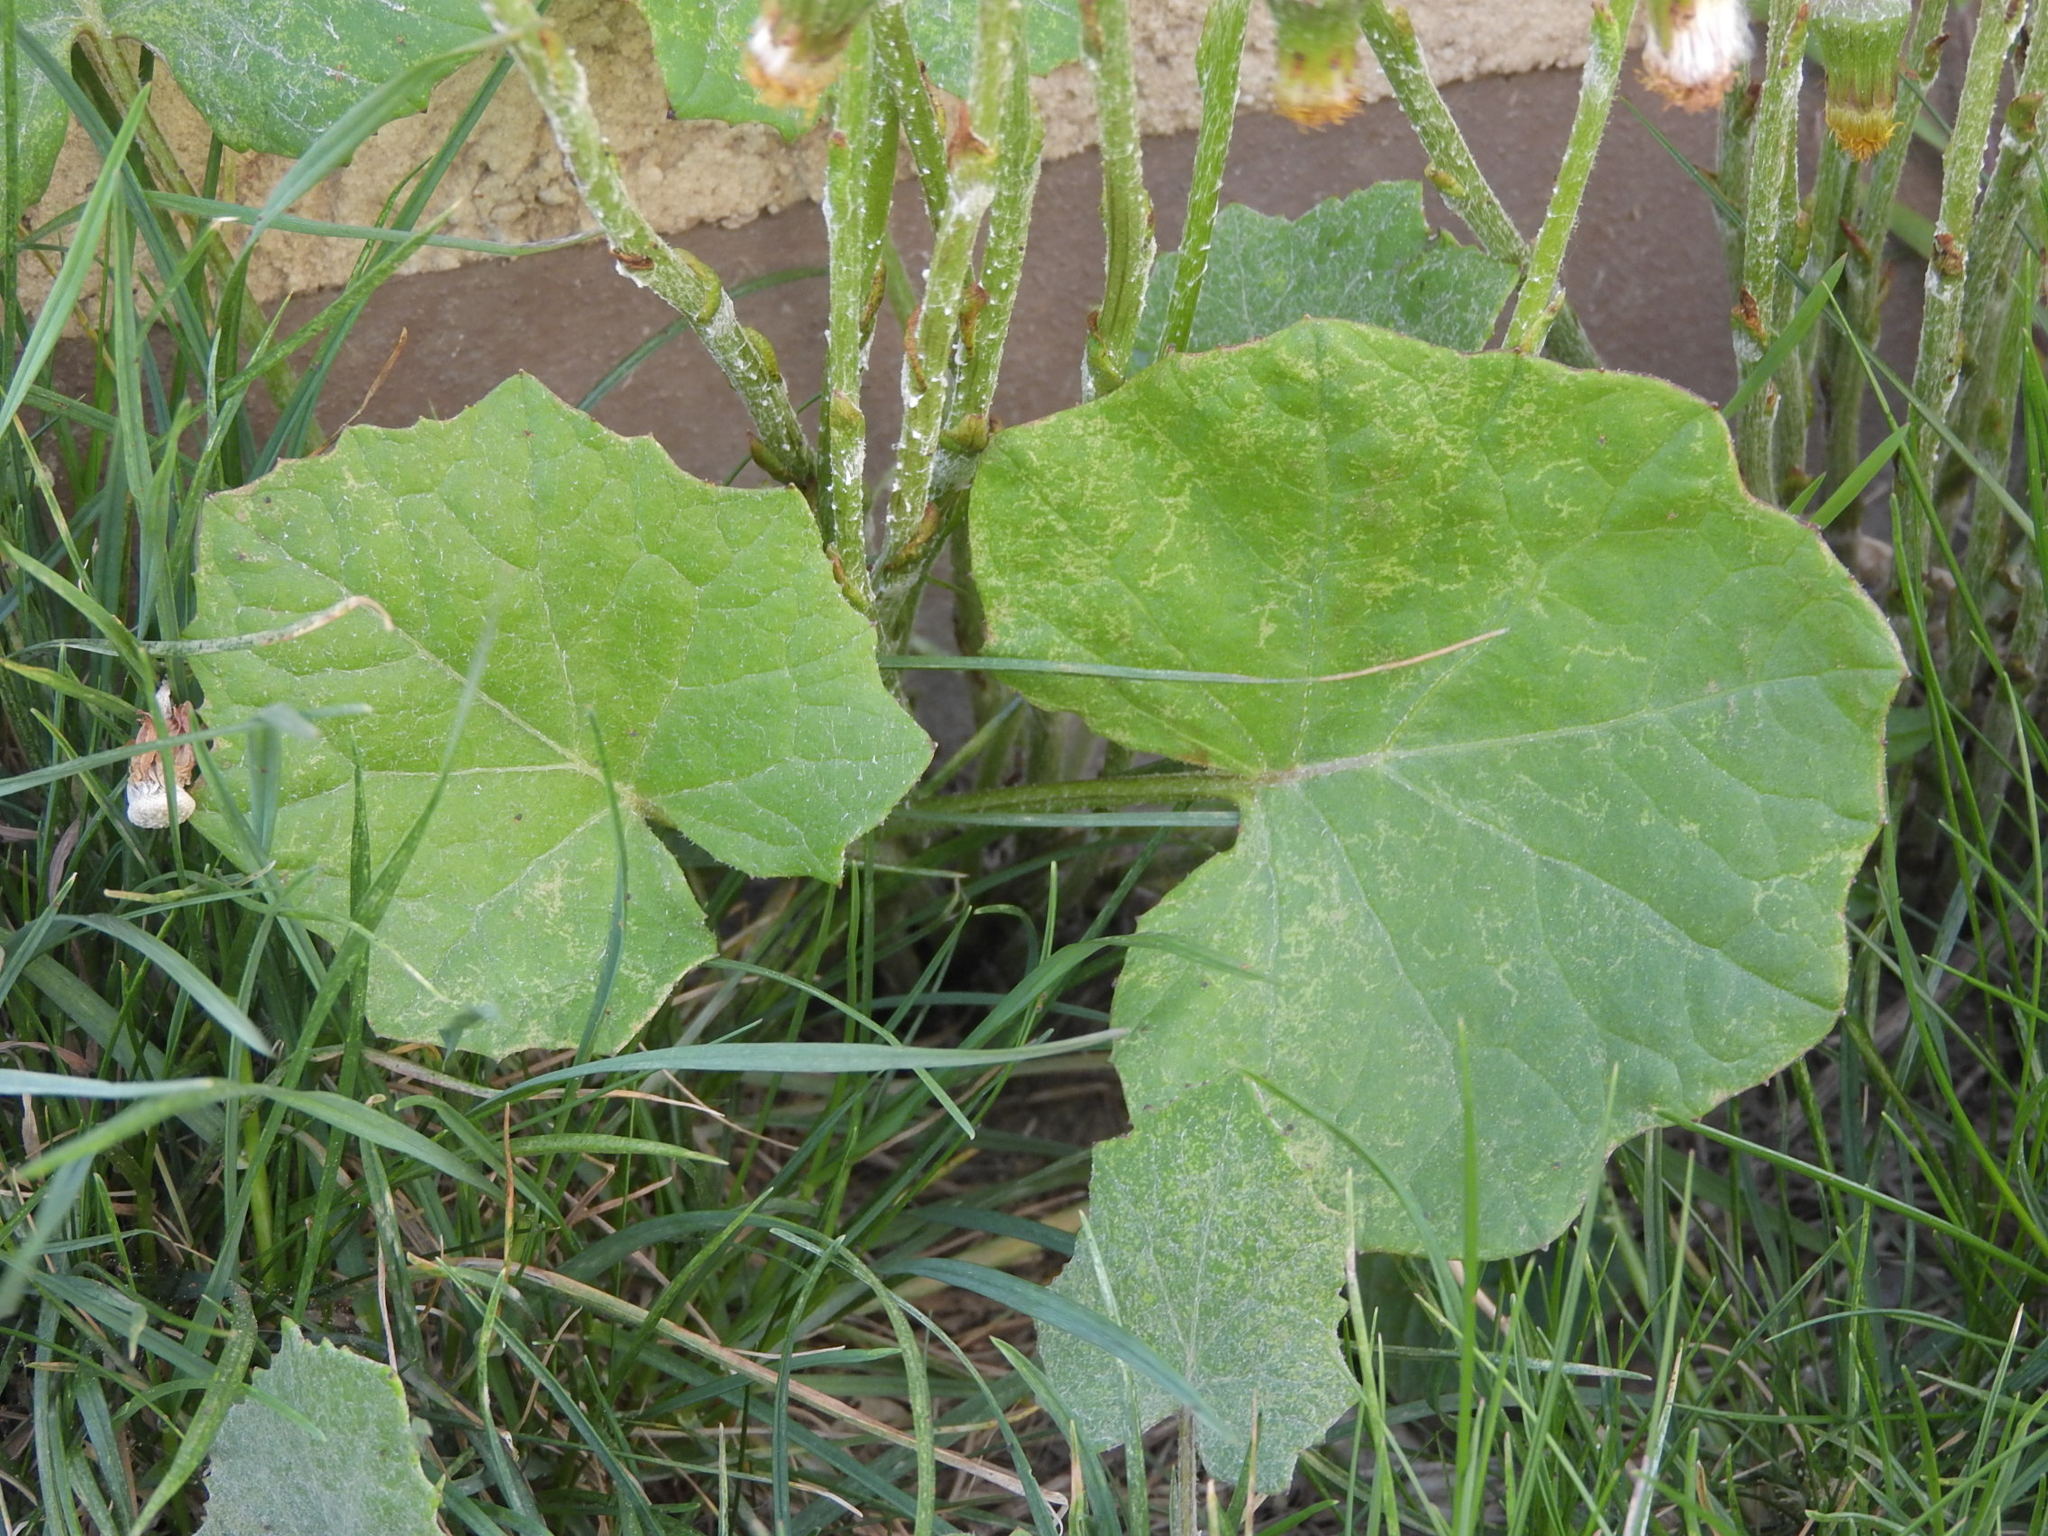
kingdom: Plantae
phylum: Tracheophyta
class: Magnoliopsida
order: Asterales
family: Asteraceae
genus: Tussilago
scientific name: Tussilago farfara
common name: Coltsfoot
